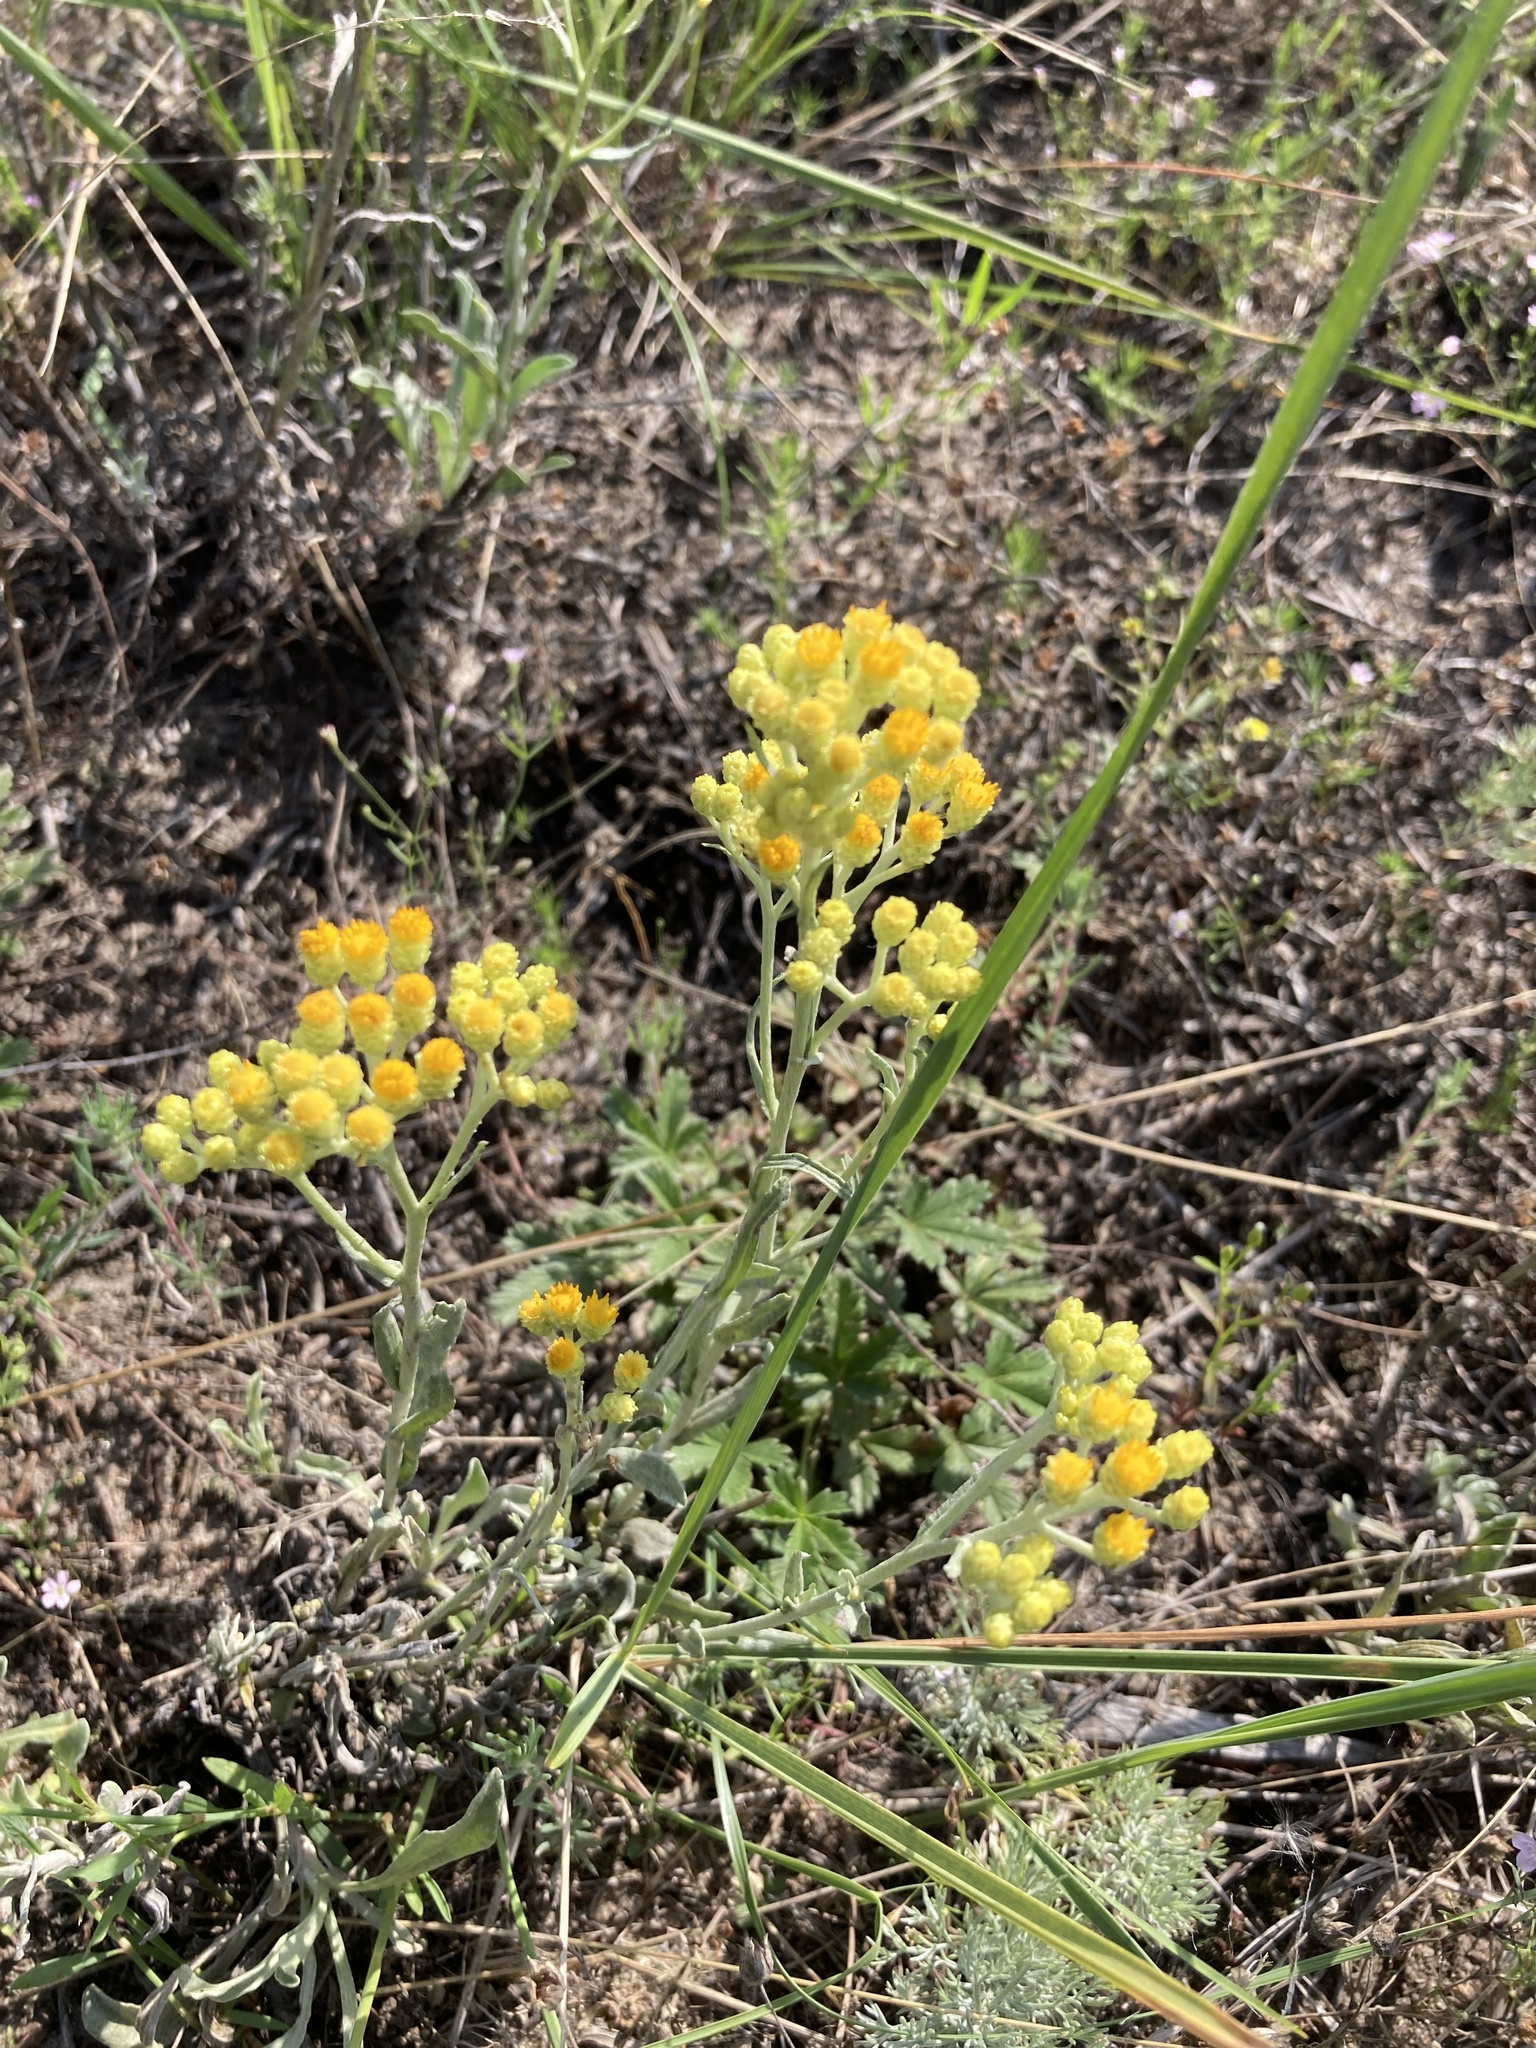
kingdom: Plantae
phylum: Tracheophyta
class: Magnoliopsida
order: Asterales
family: Asteraceae
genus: Helichrysum
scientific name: Helichrysum arenarium
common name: Strawflower
